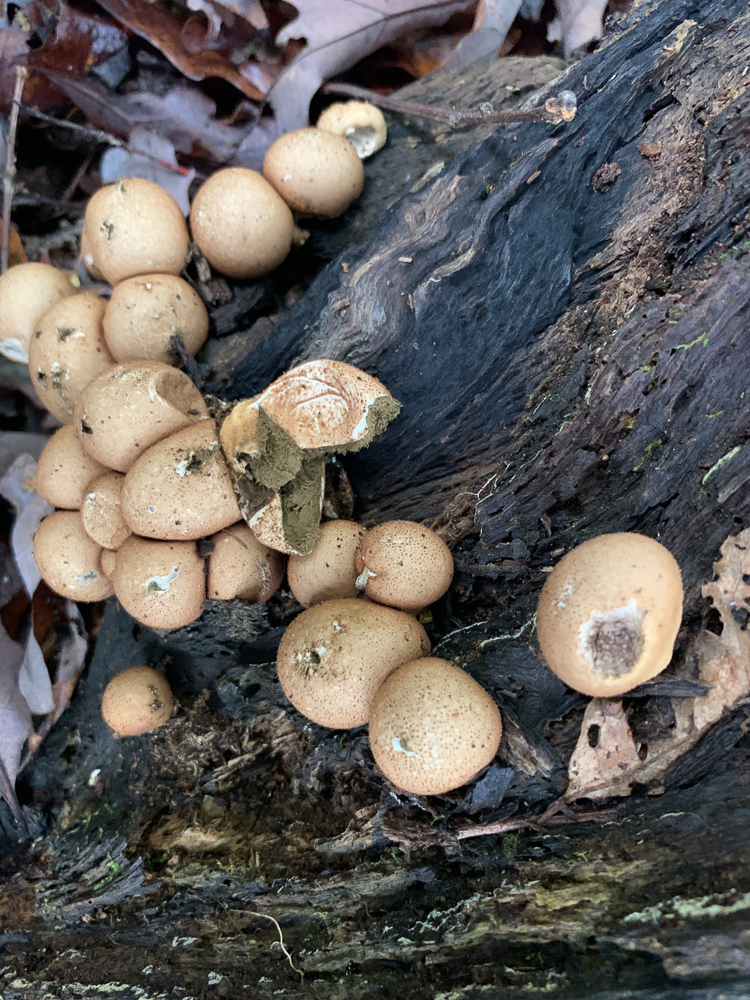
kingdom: Fungi
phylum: Basidiomycota
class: Agaricomycetes
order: Agaricales
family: Lycoperdaceae
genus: Apioperdon
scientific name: Apioperdon pyriforme
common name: Pear-shaped puffball
